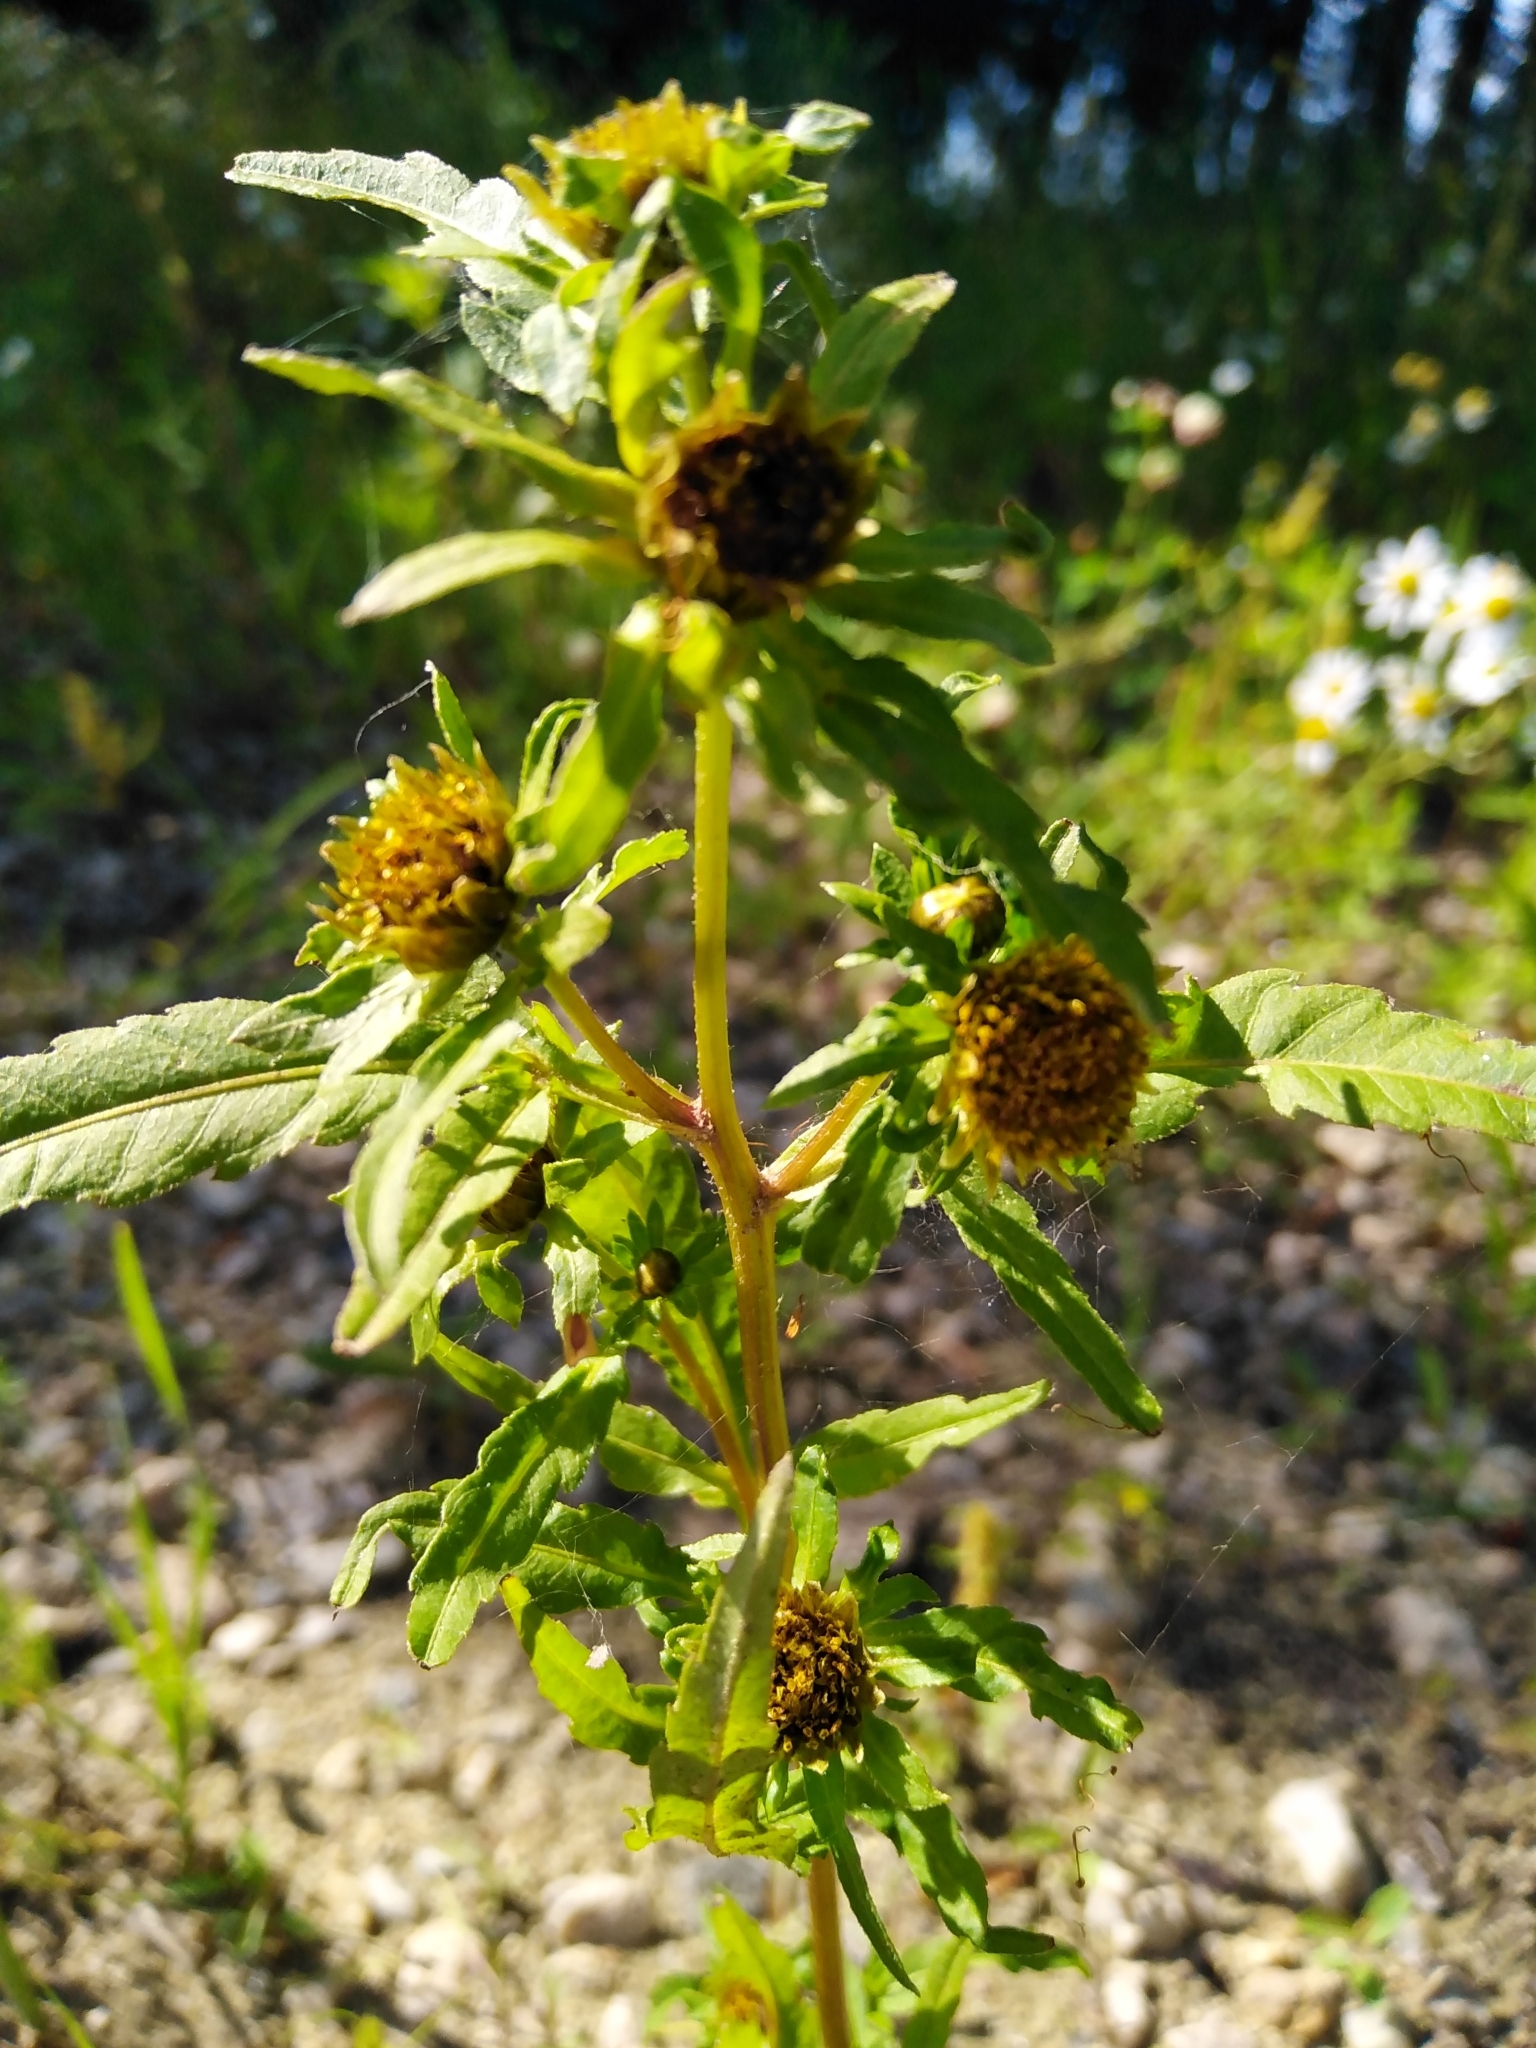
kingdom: Plantae
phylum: Tracheophyta
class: Magnoliopsida
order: Asterales
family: Asteraceae
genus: Bidens
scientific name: Bidens radiata
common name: Radiating bur-marigold
